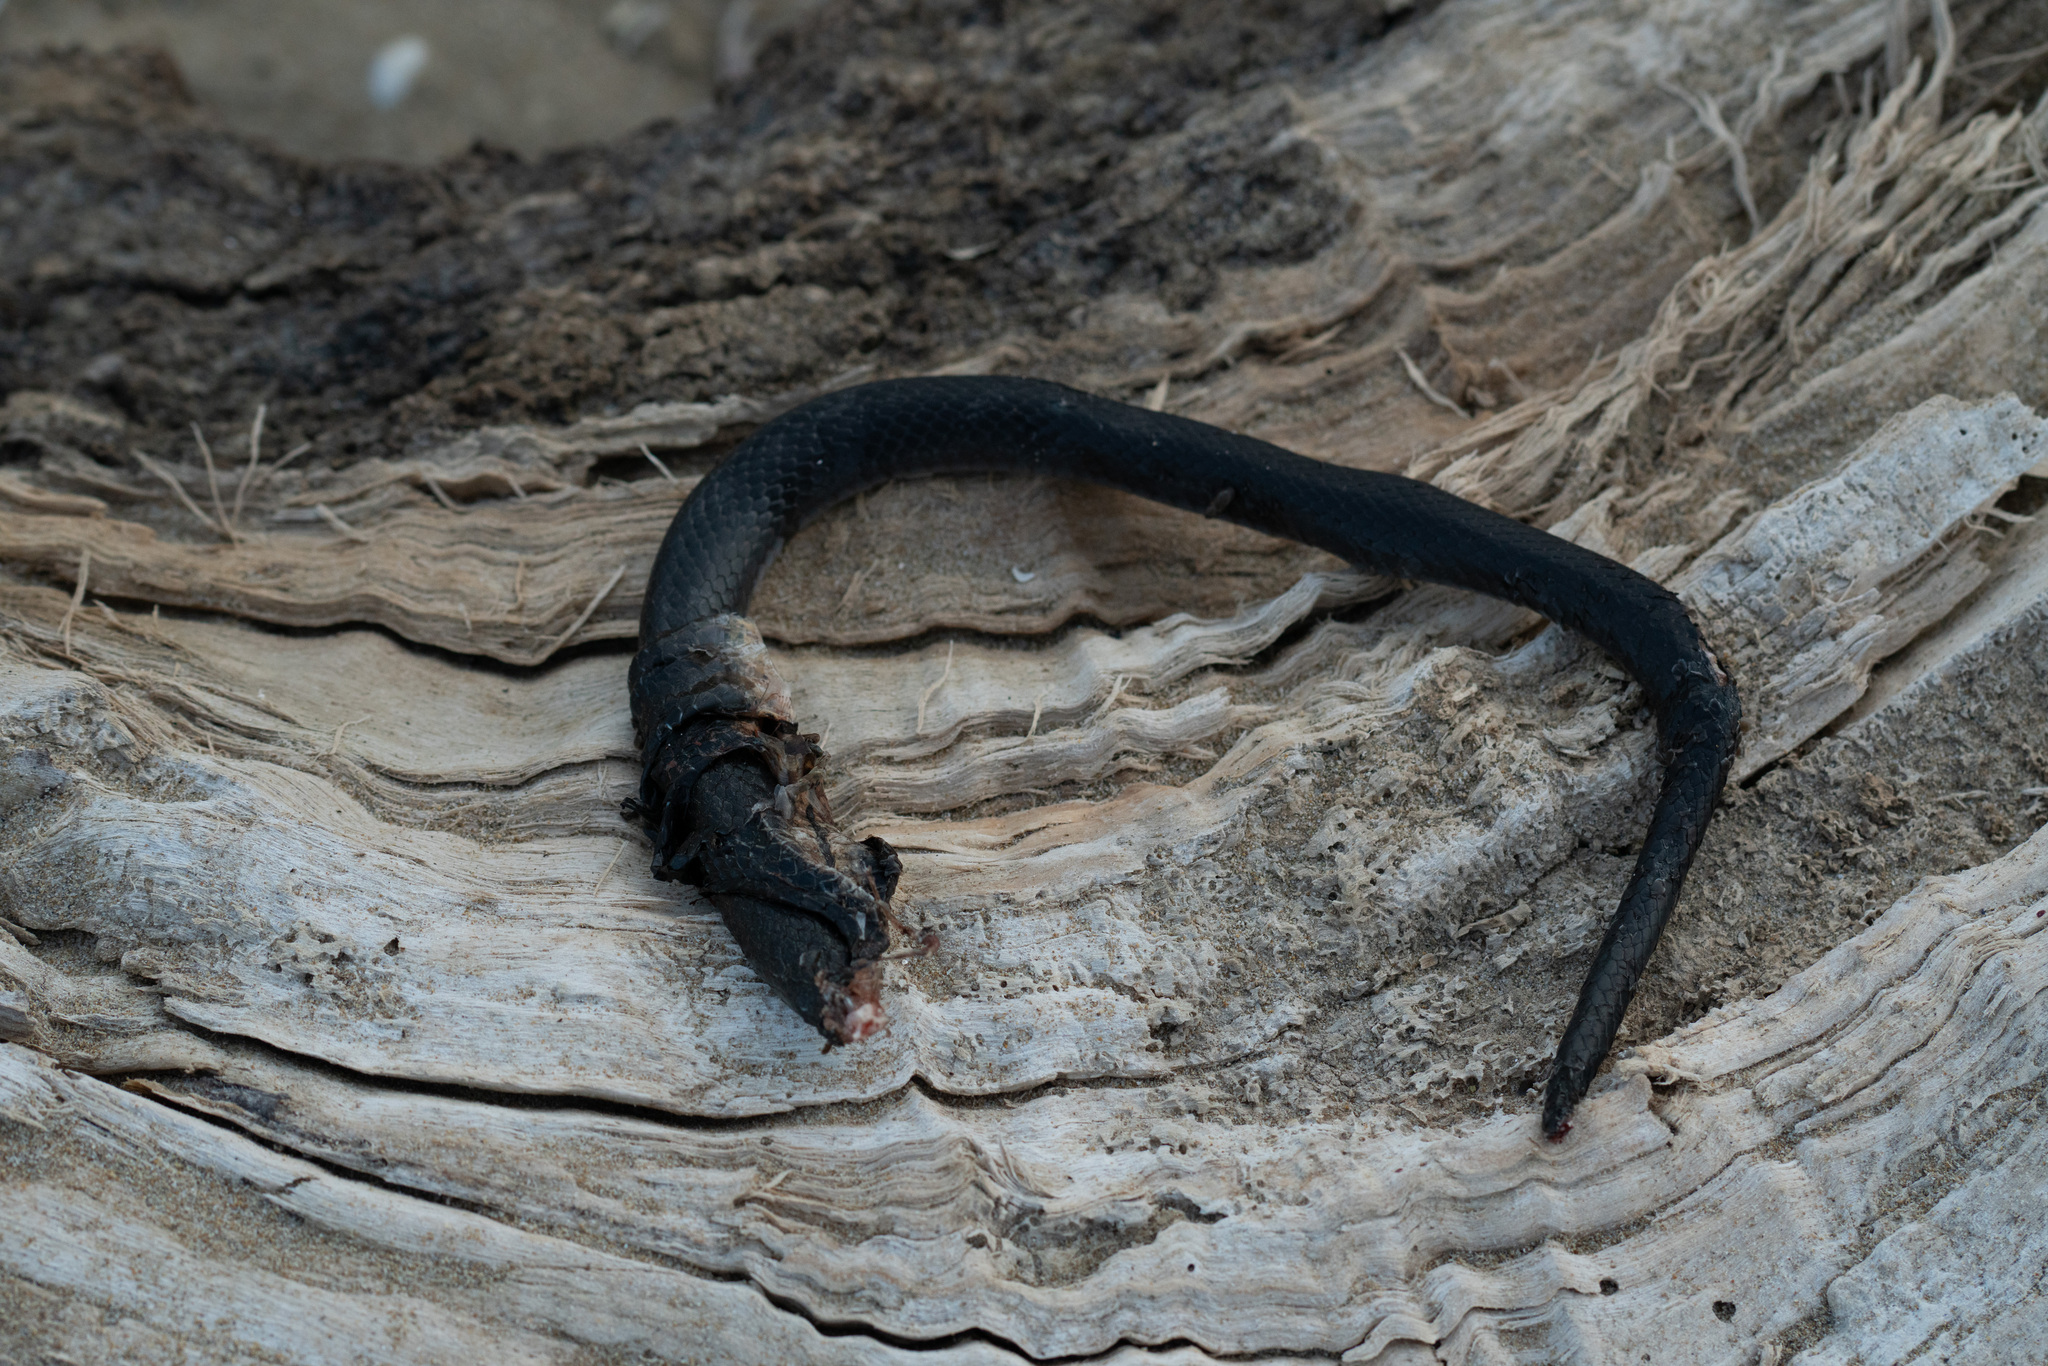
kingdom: Animalia
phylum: Chordata
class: Squamata
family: Colubridae
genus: Hierophis
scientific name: Hierophis viridiflavus
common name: Green whip snake
